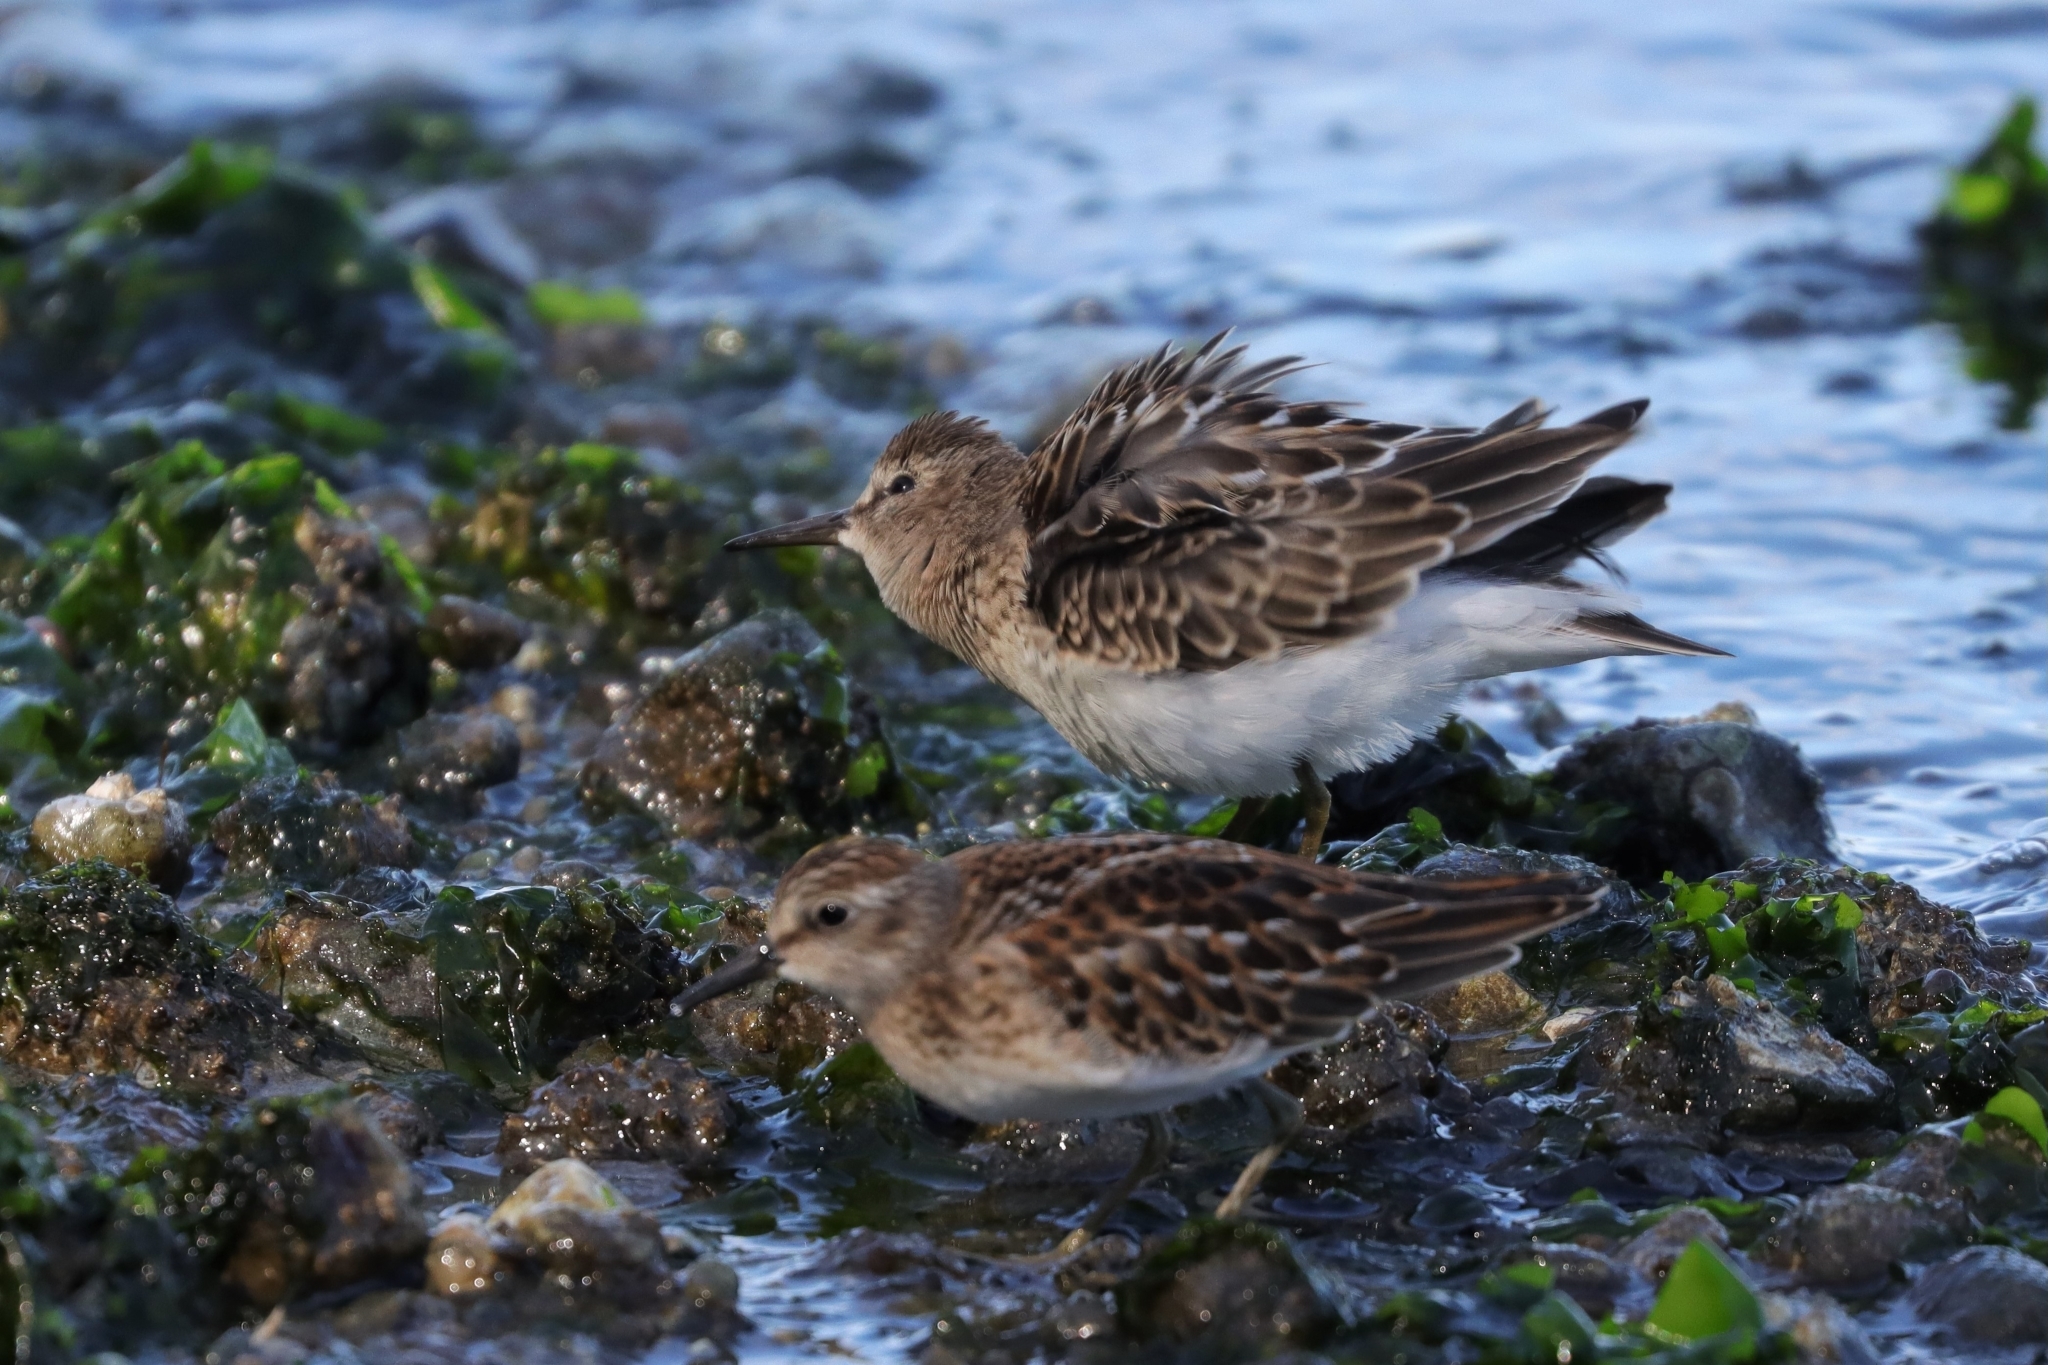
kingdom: Animalia
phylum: Chordata
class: Aves
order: Charadriiformes
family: Scolopacidae
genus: Calidris
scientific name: Calidris minutilla
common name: Least sandpiper
